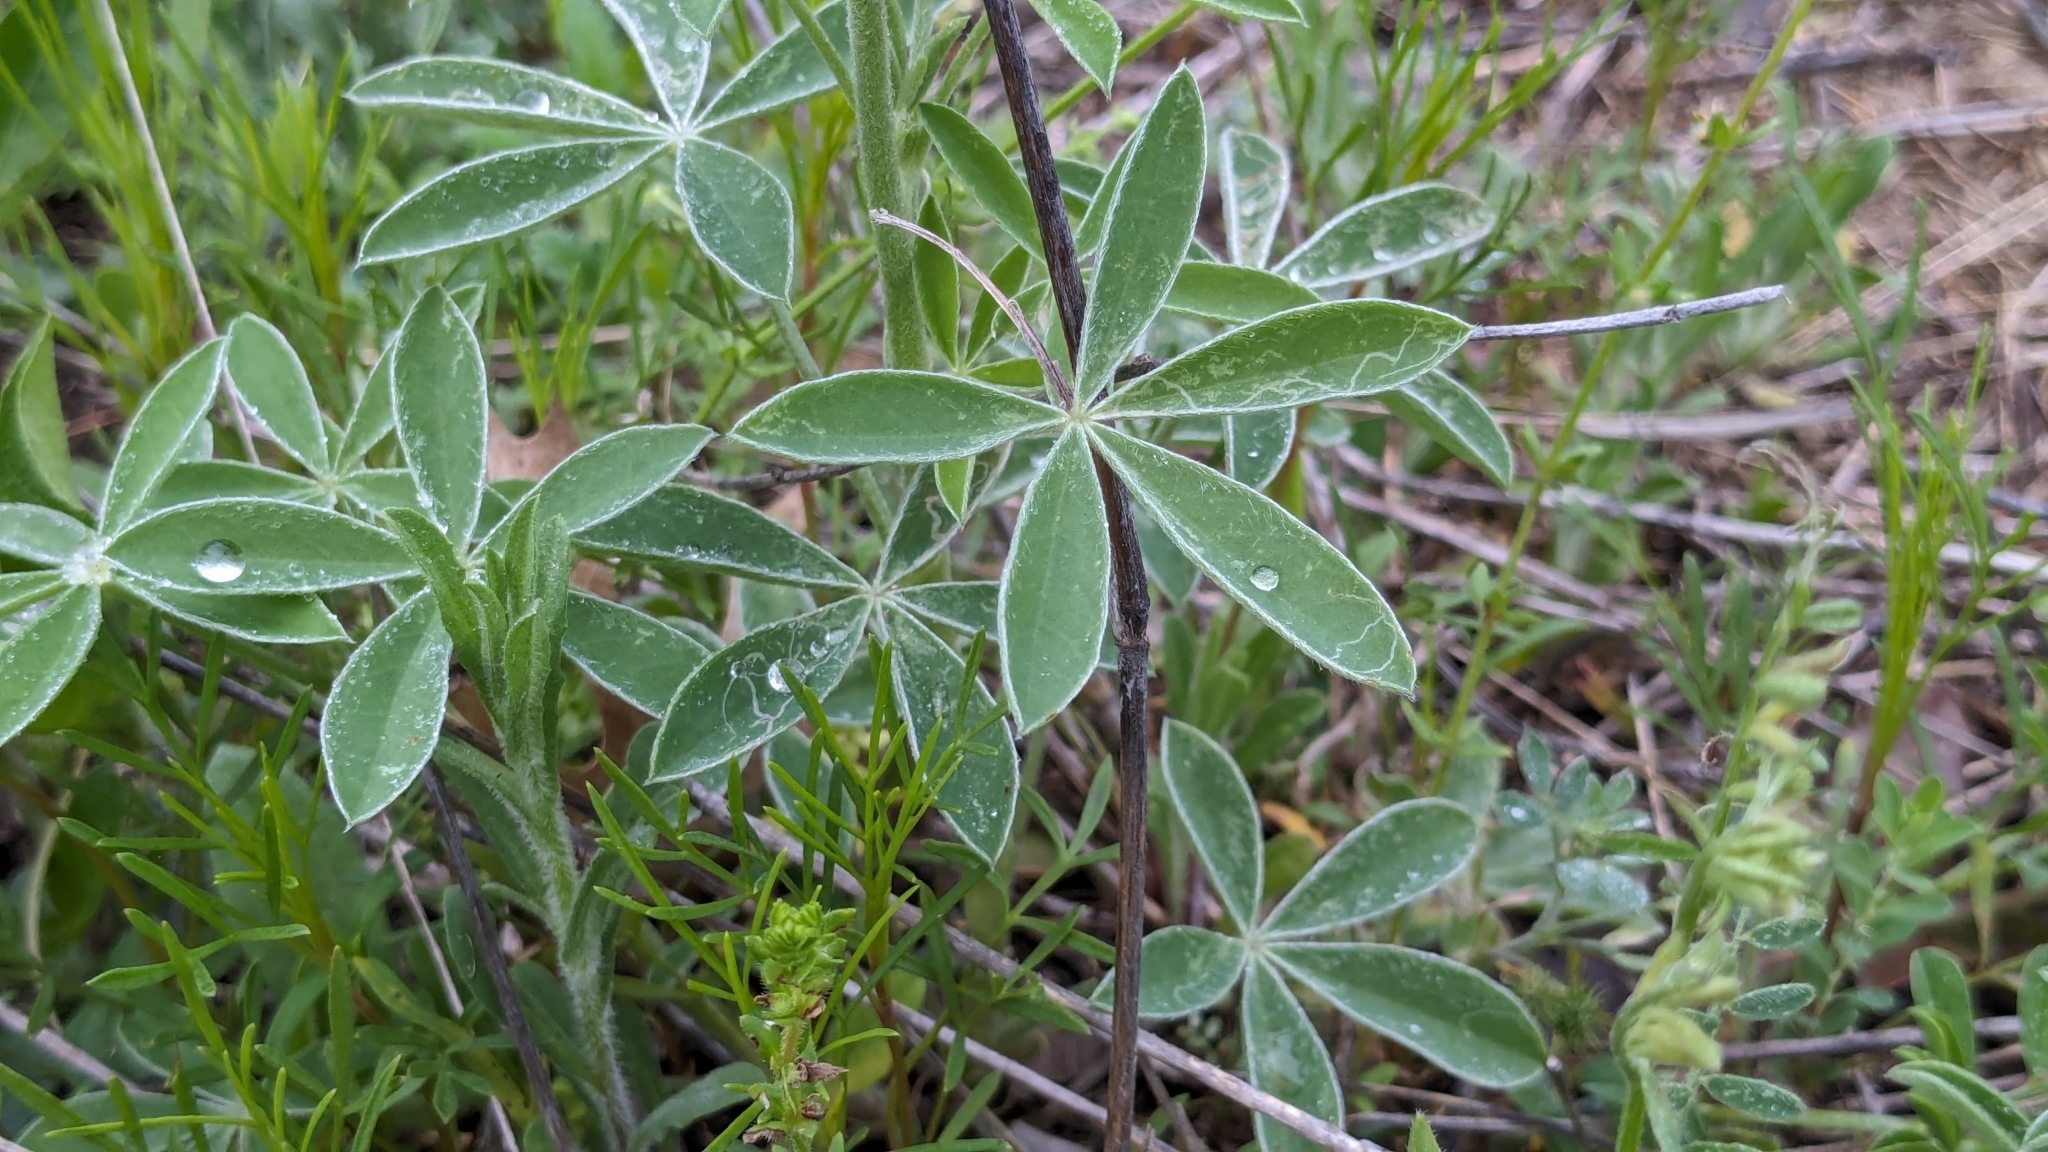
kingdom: Plantae
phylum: Tracheophyta
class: Magnoliopsida
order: Fabales
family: Fabaceae
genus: Lupinus
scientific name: Lupinus texensis
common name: Texas bluebonnet
